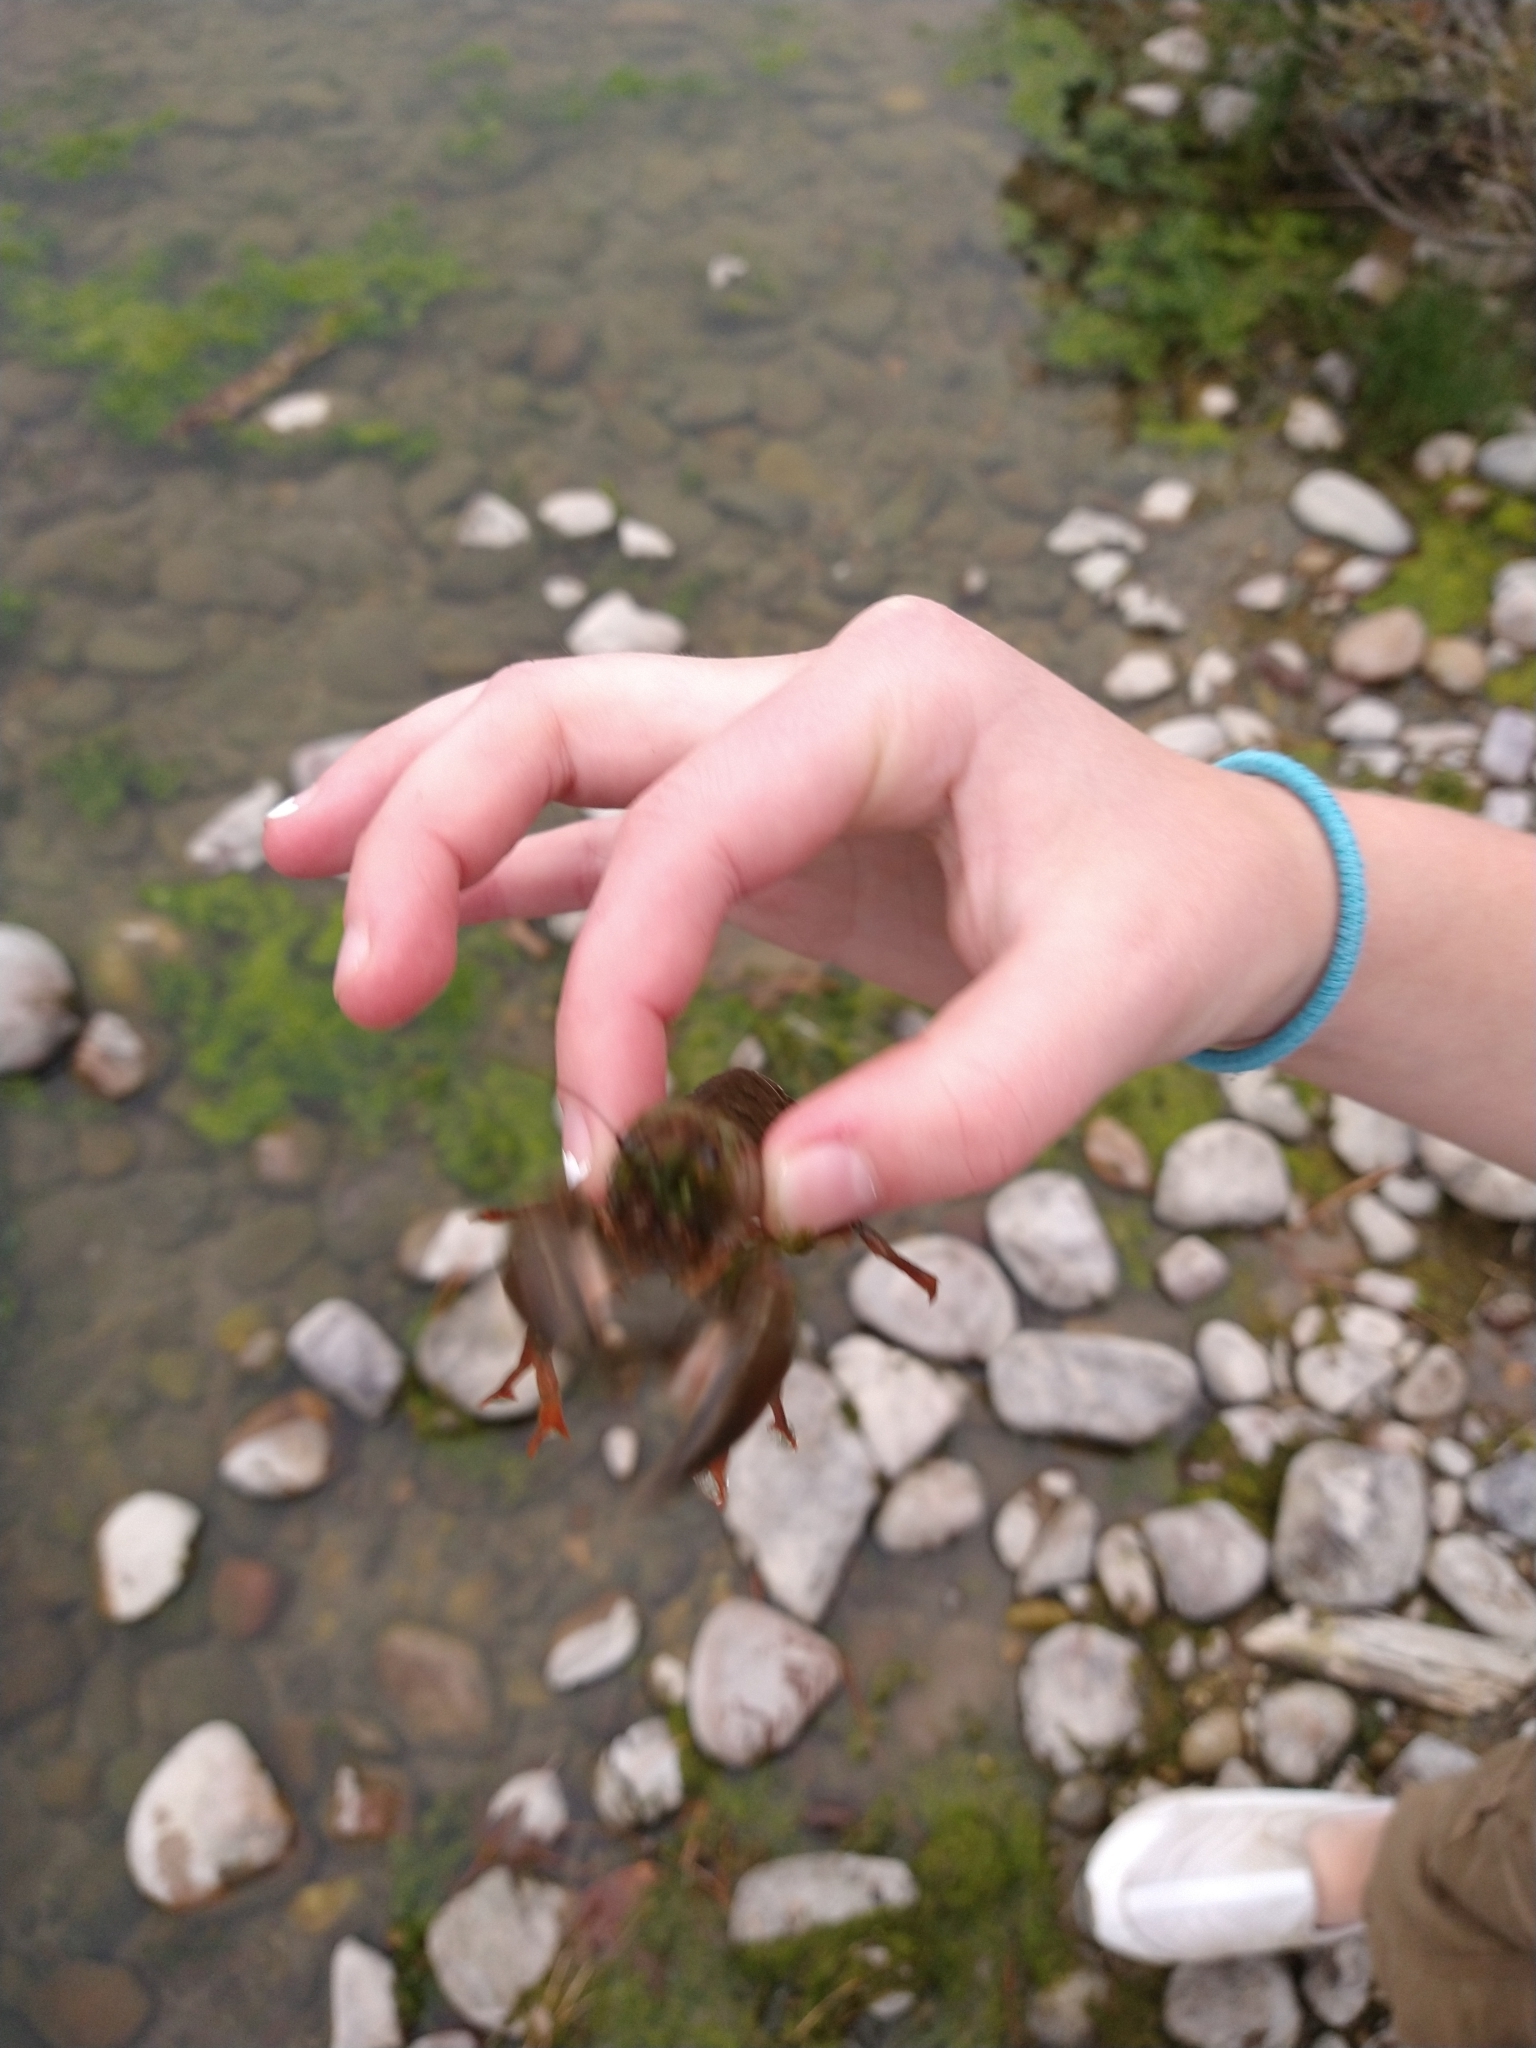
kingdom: Animalia
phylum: Arthropoda
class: Malacostraca
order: Decapoda
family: Astacidae
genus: Pacifastacus
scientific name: Pacifastacus leniusculus
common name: Signal crayfish
